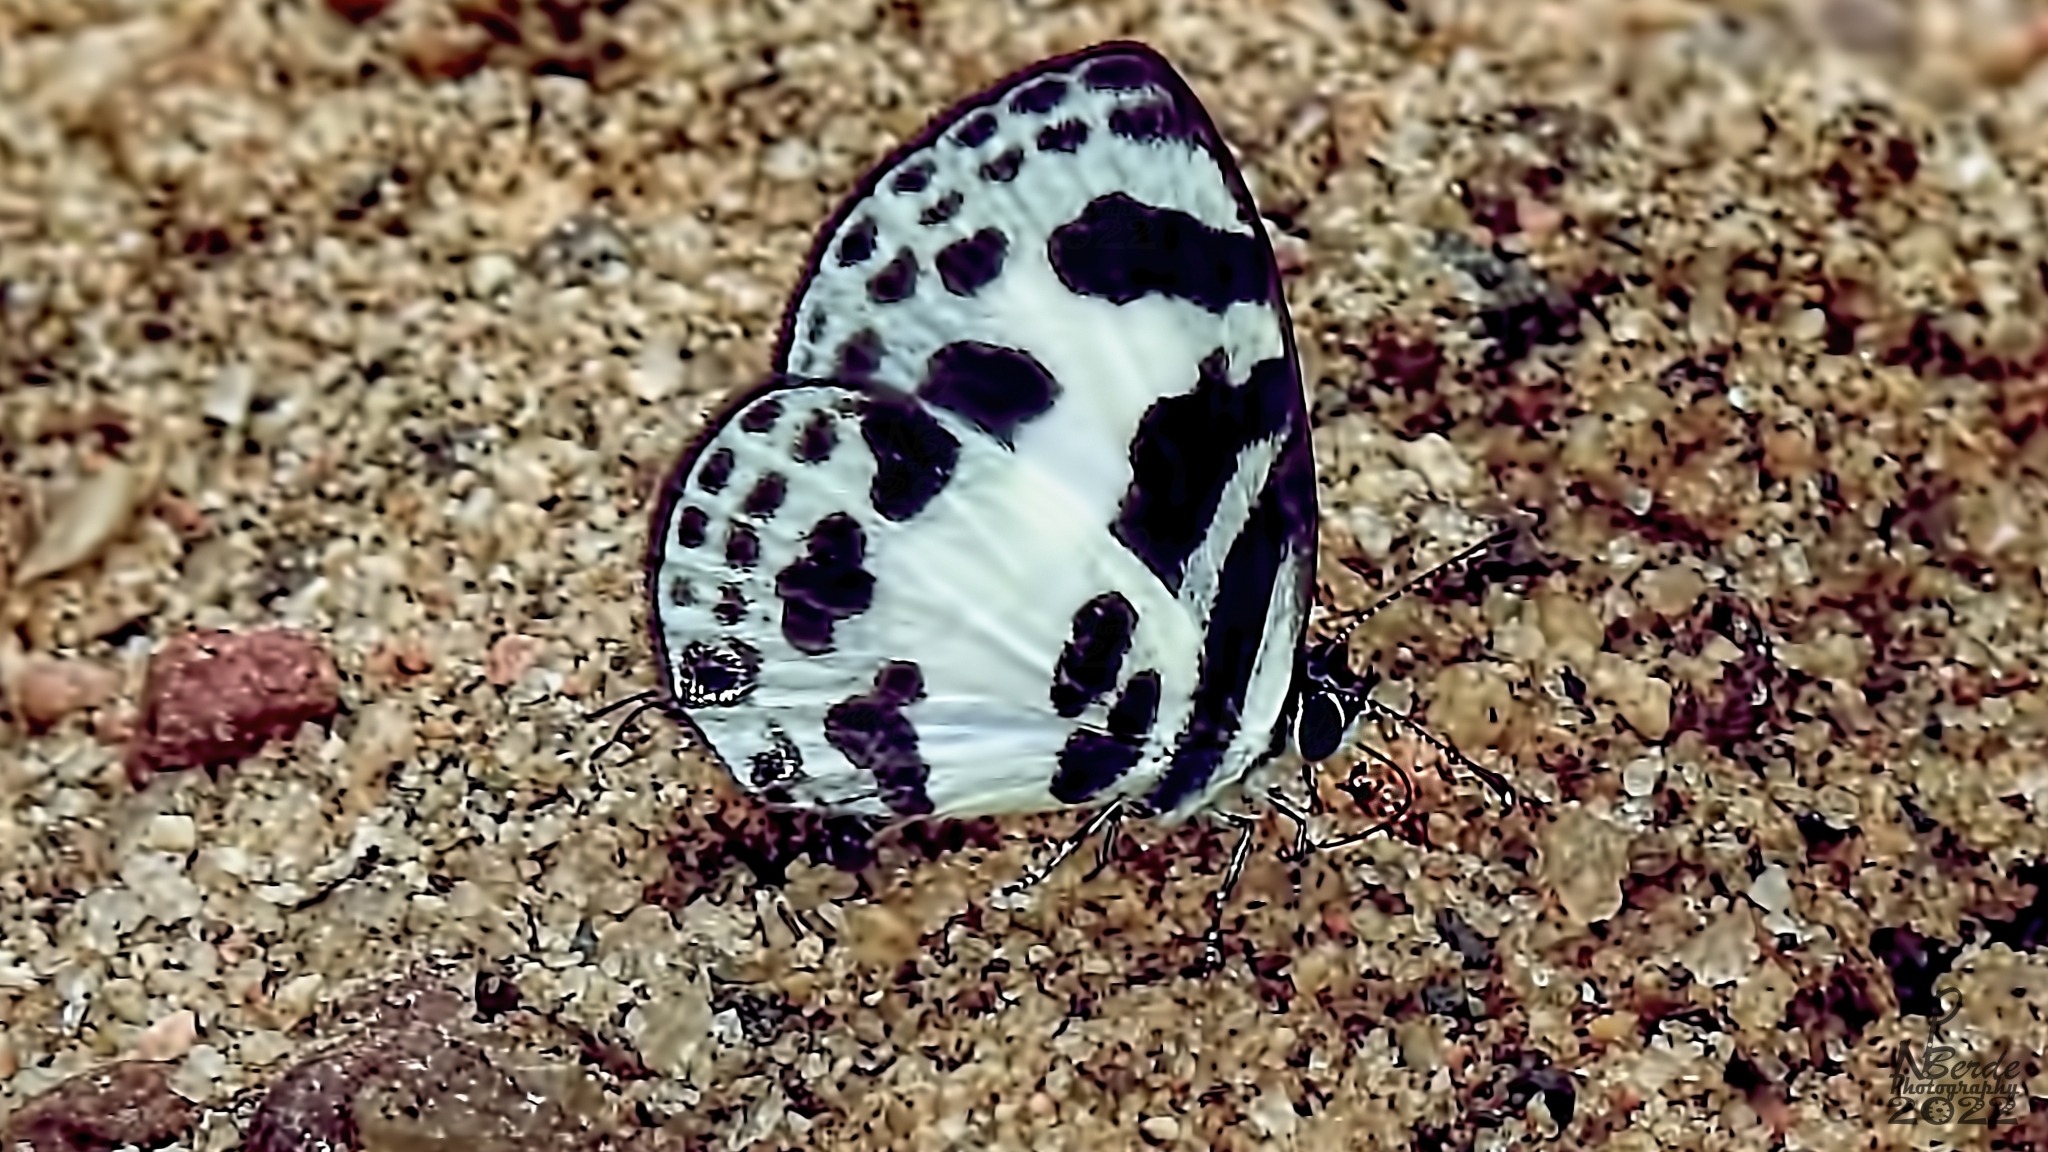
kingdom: Animalia
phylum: Arthropoda
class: Insecta
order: Lepidoptera
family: Lycaenidae
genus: Discolampa
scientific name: Discolampa ethion
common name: Banded blue pierrot
